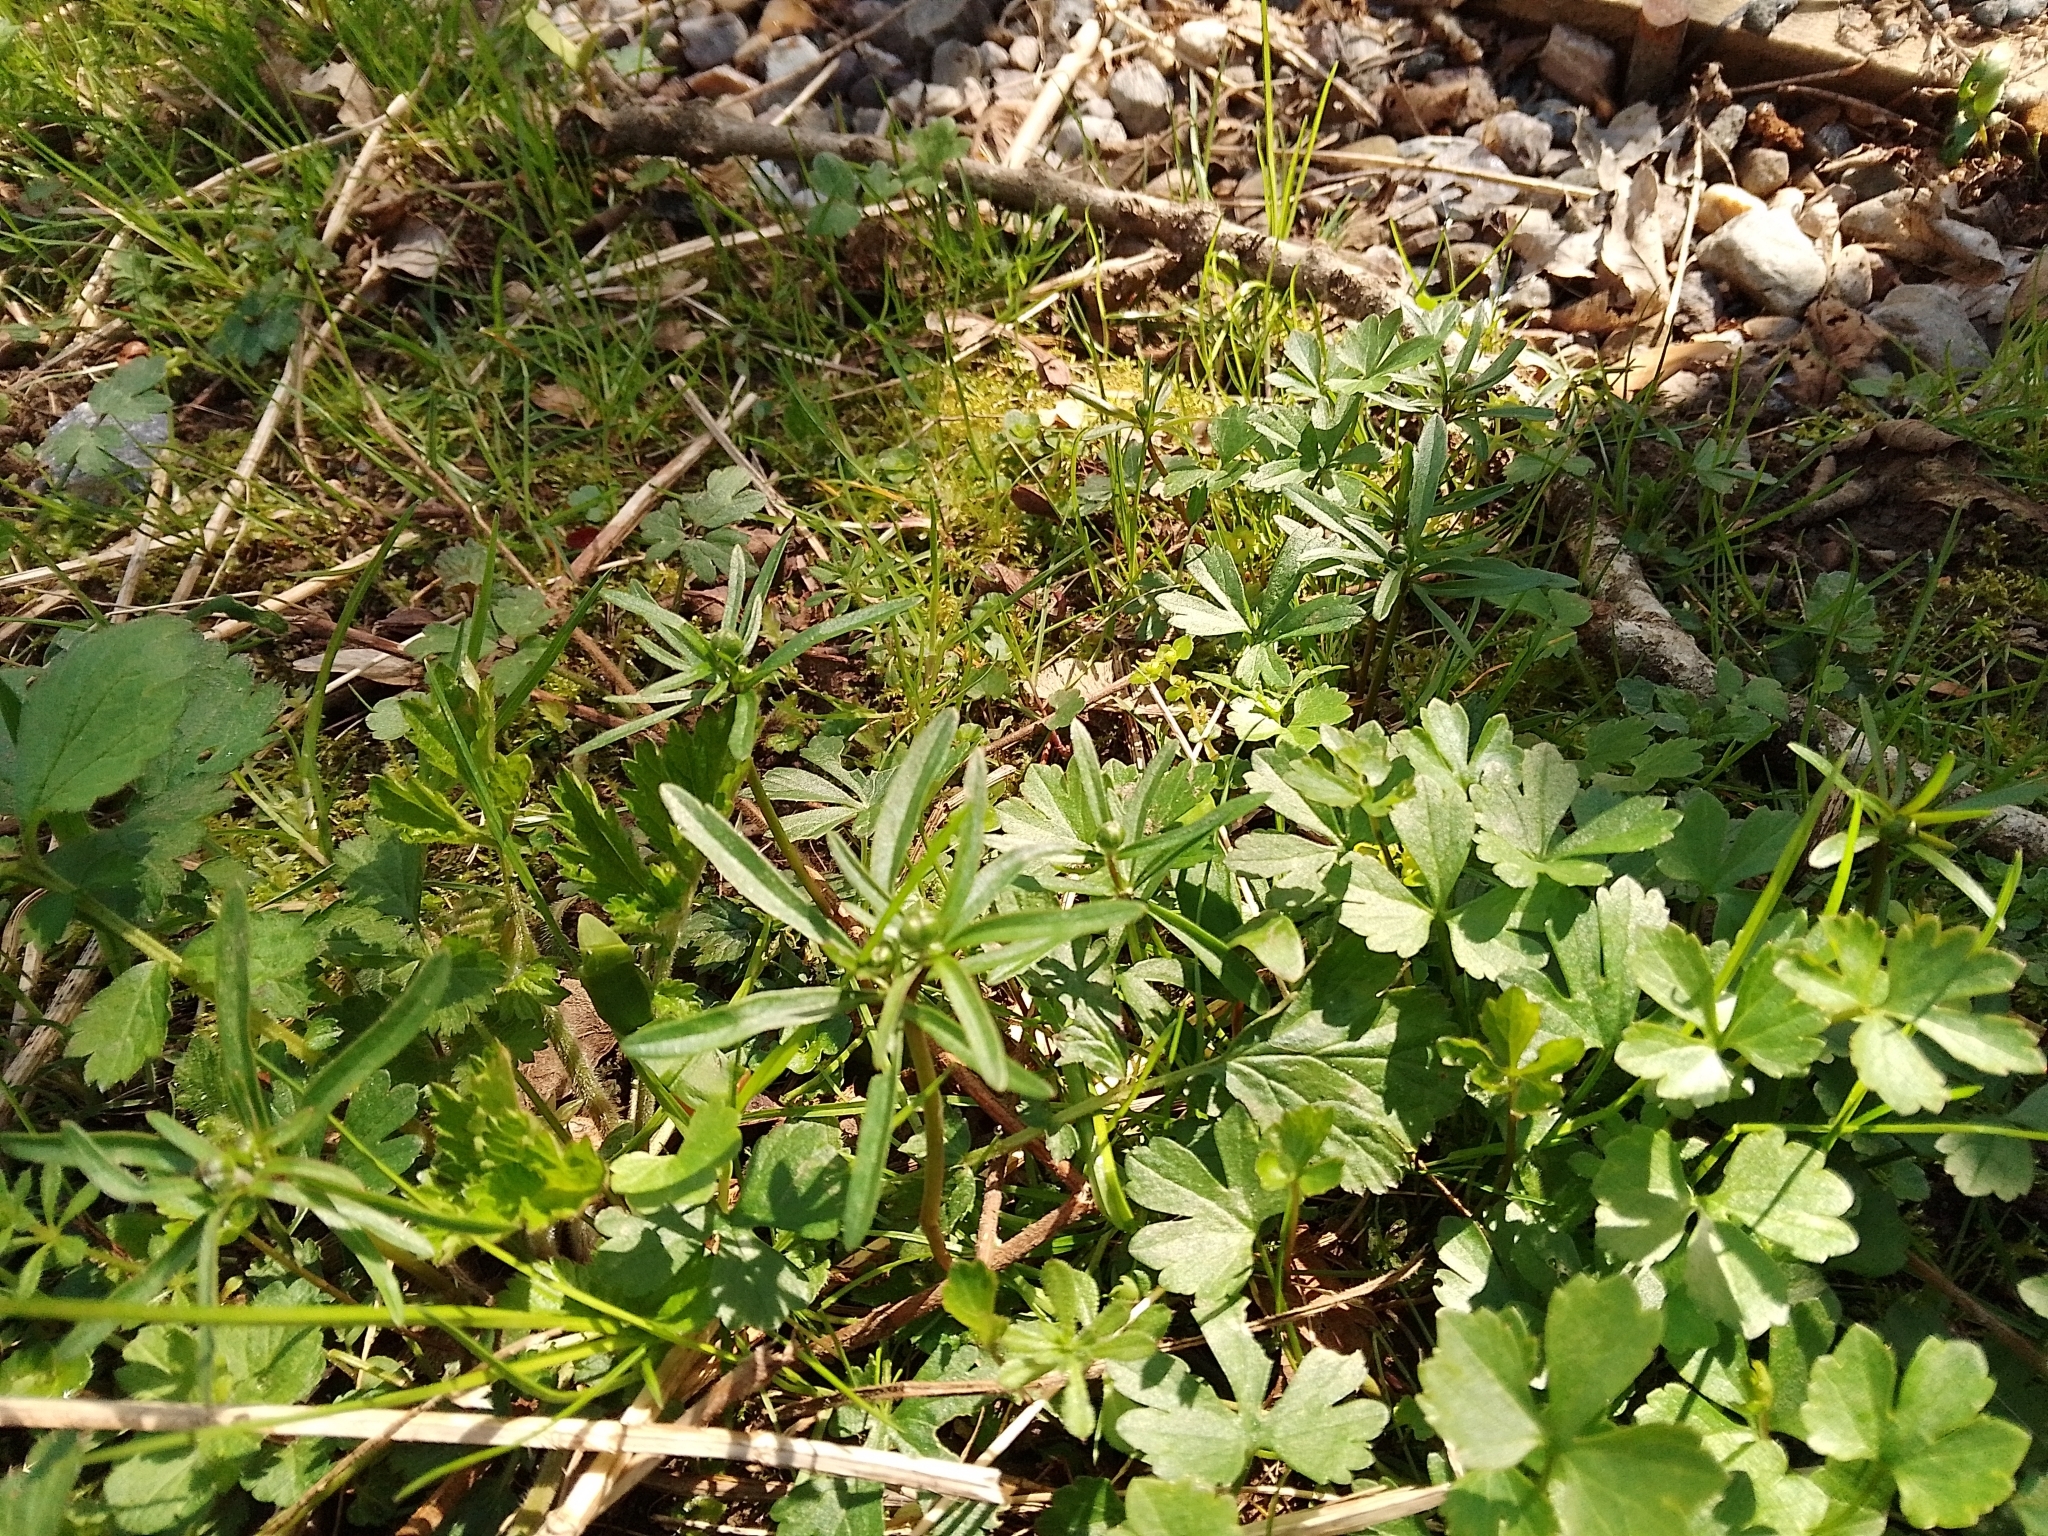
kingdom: Plantae
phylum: Tracheophyta
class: Magnoliopsida
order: Ranunculales
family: Ranunculaceae
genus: Ranunculus
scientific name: Ranunculus auricomus
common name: Goldilocks buttercup
